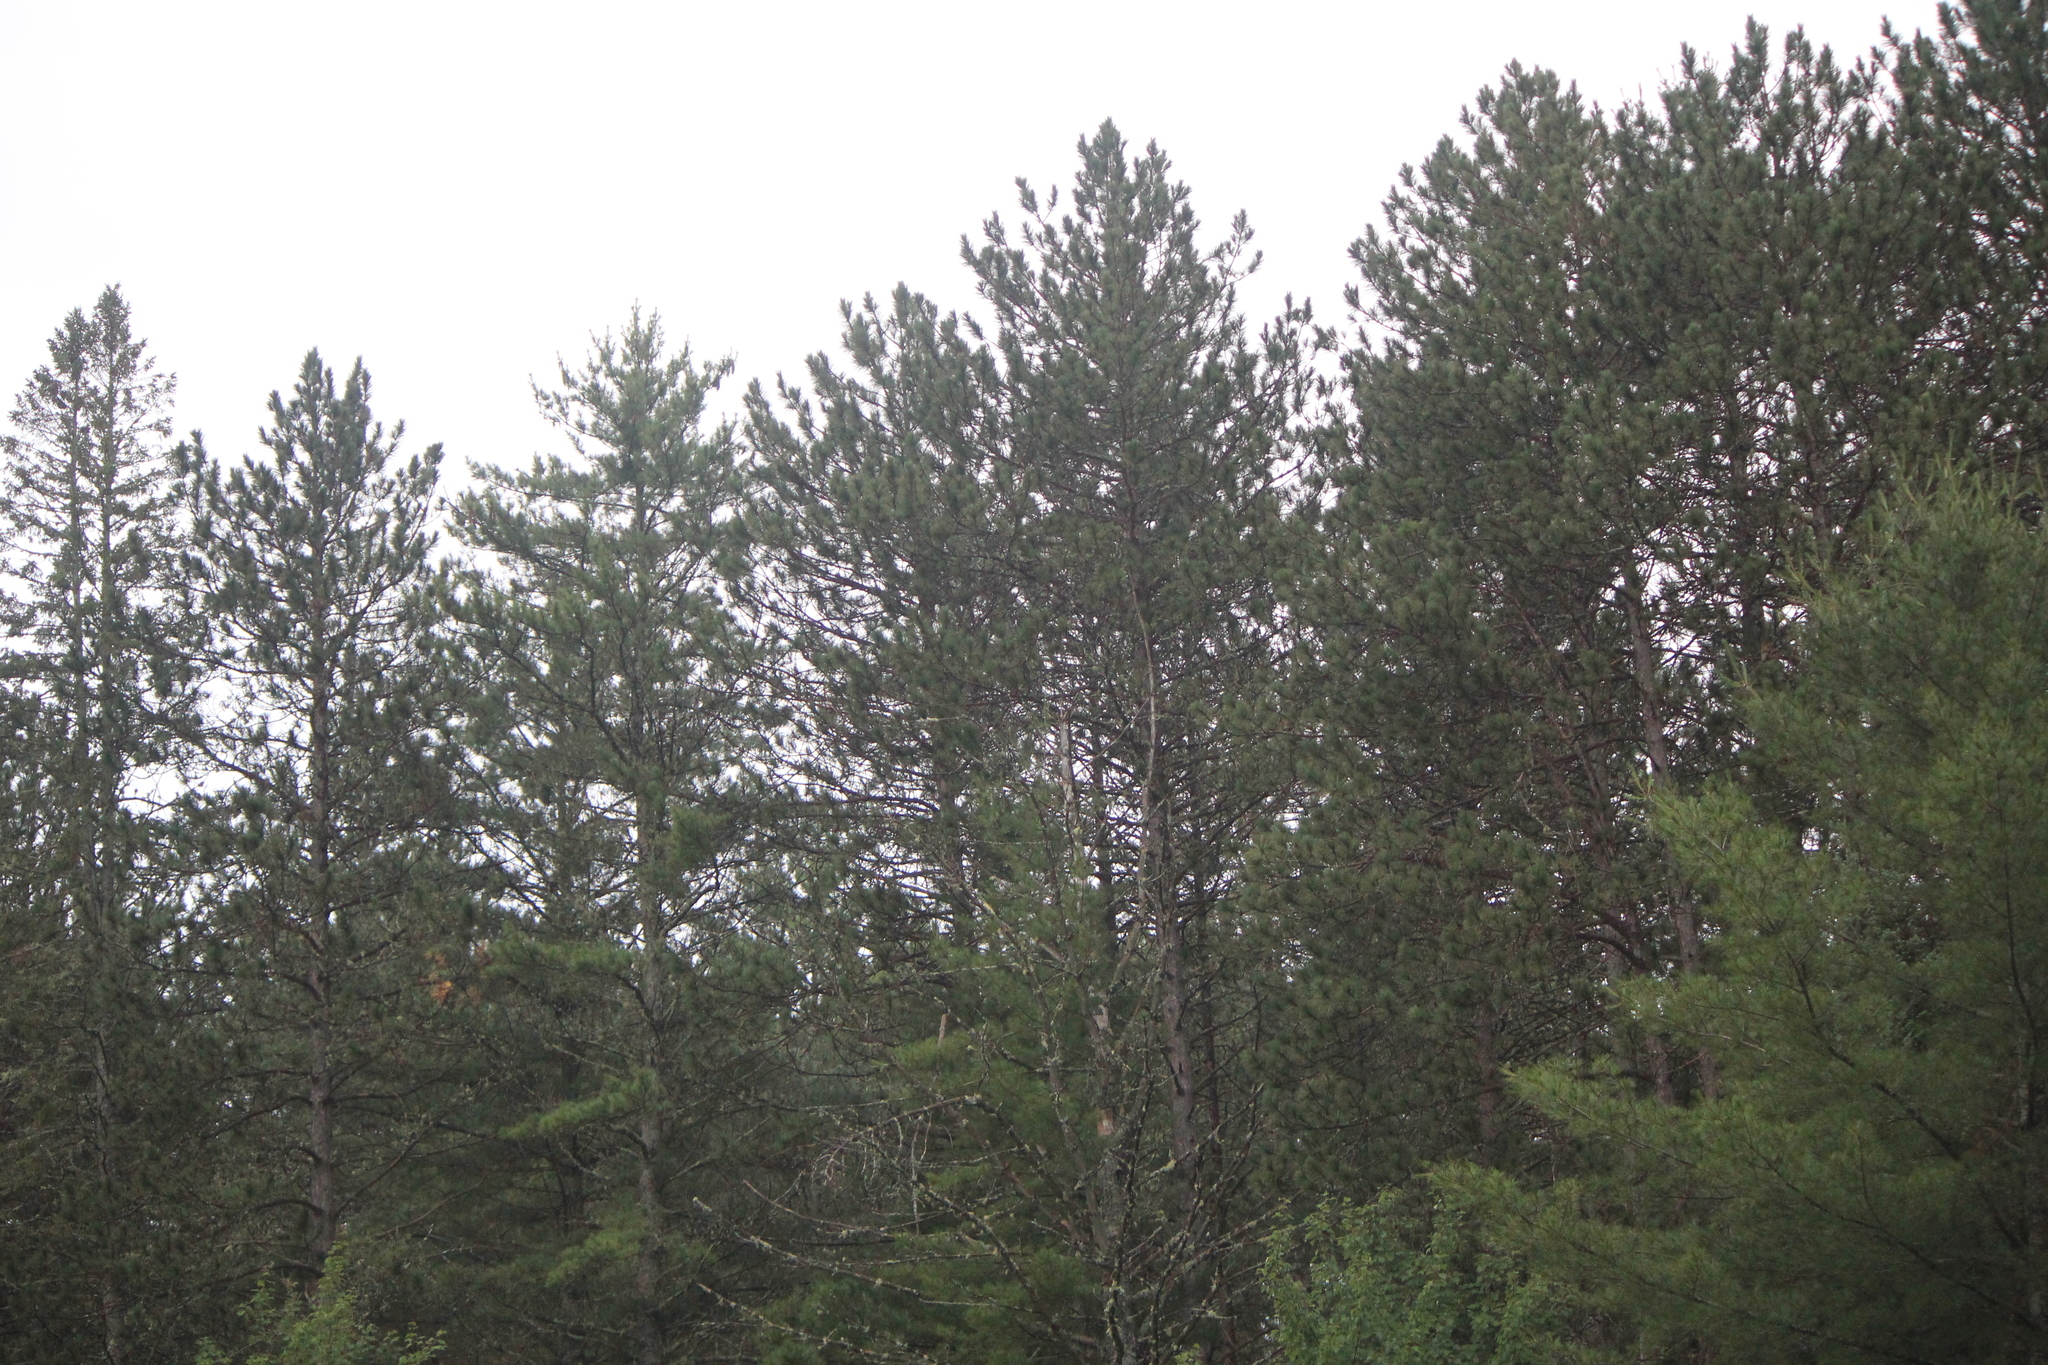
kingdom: Plantae
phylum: Tracheophyta
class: Pinopsida
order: Pinales
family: Pinaceae
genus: Pinus
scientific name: Pinus resinosa
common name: Norway pine
